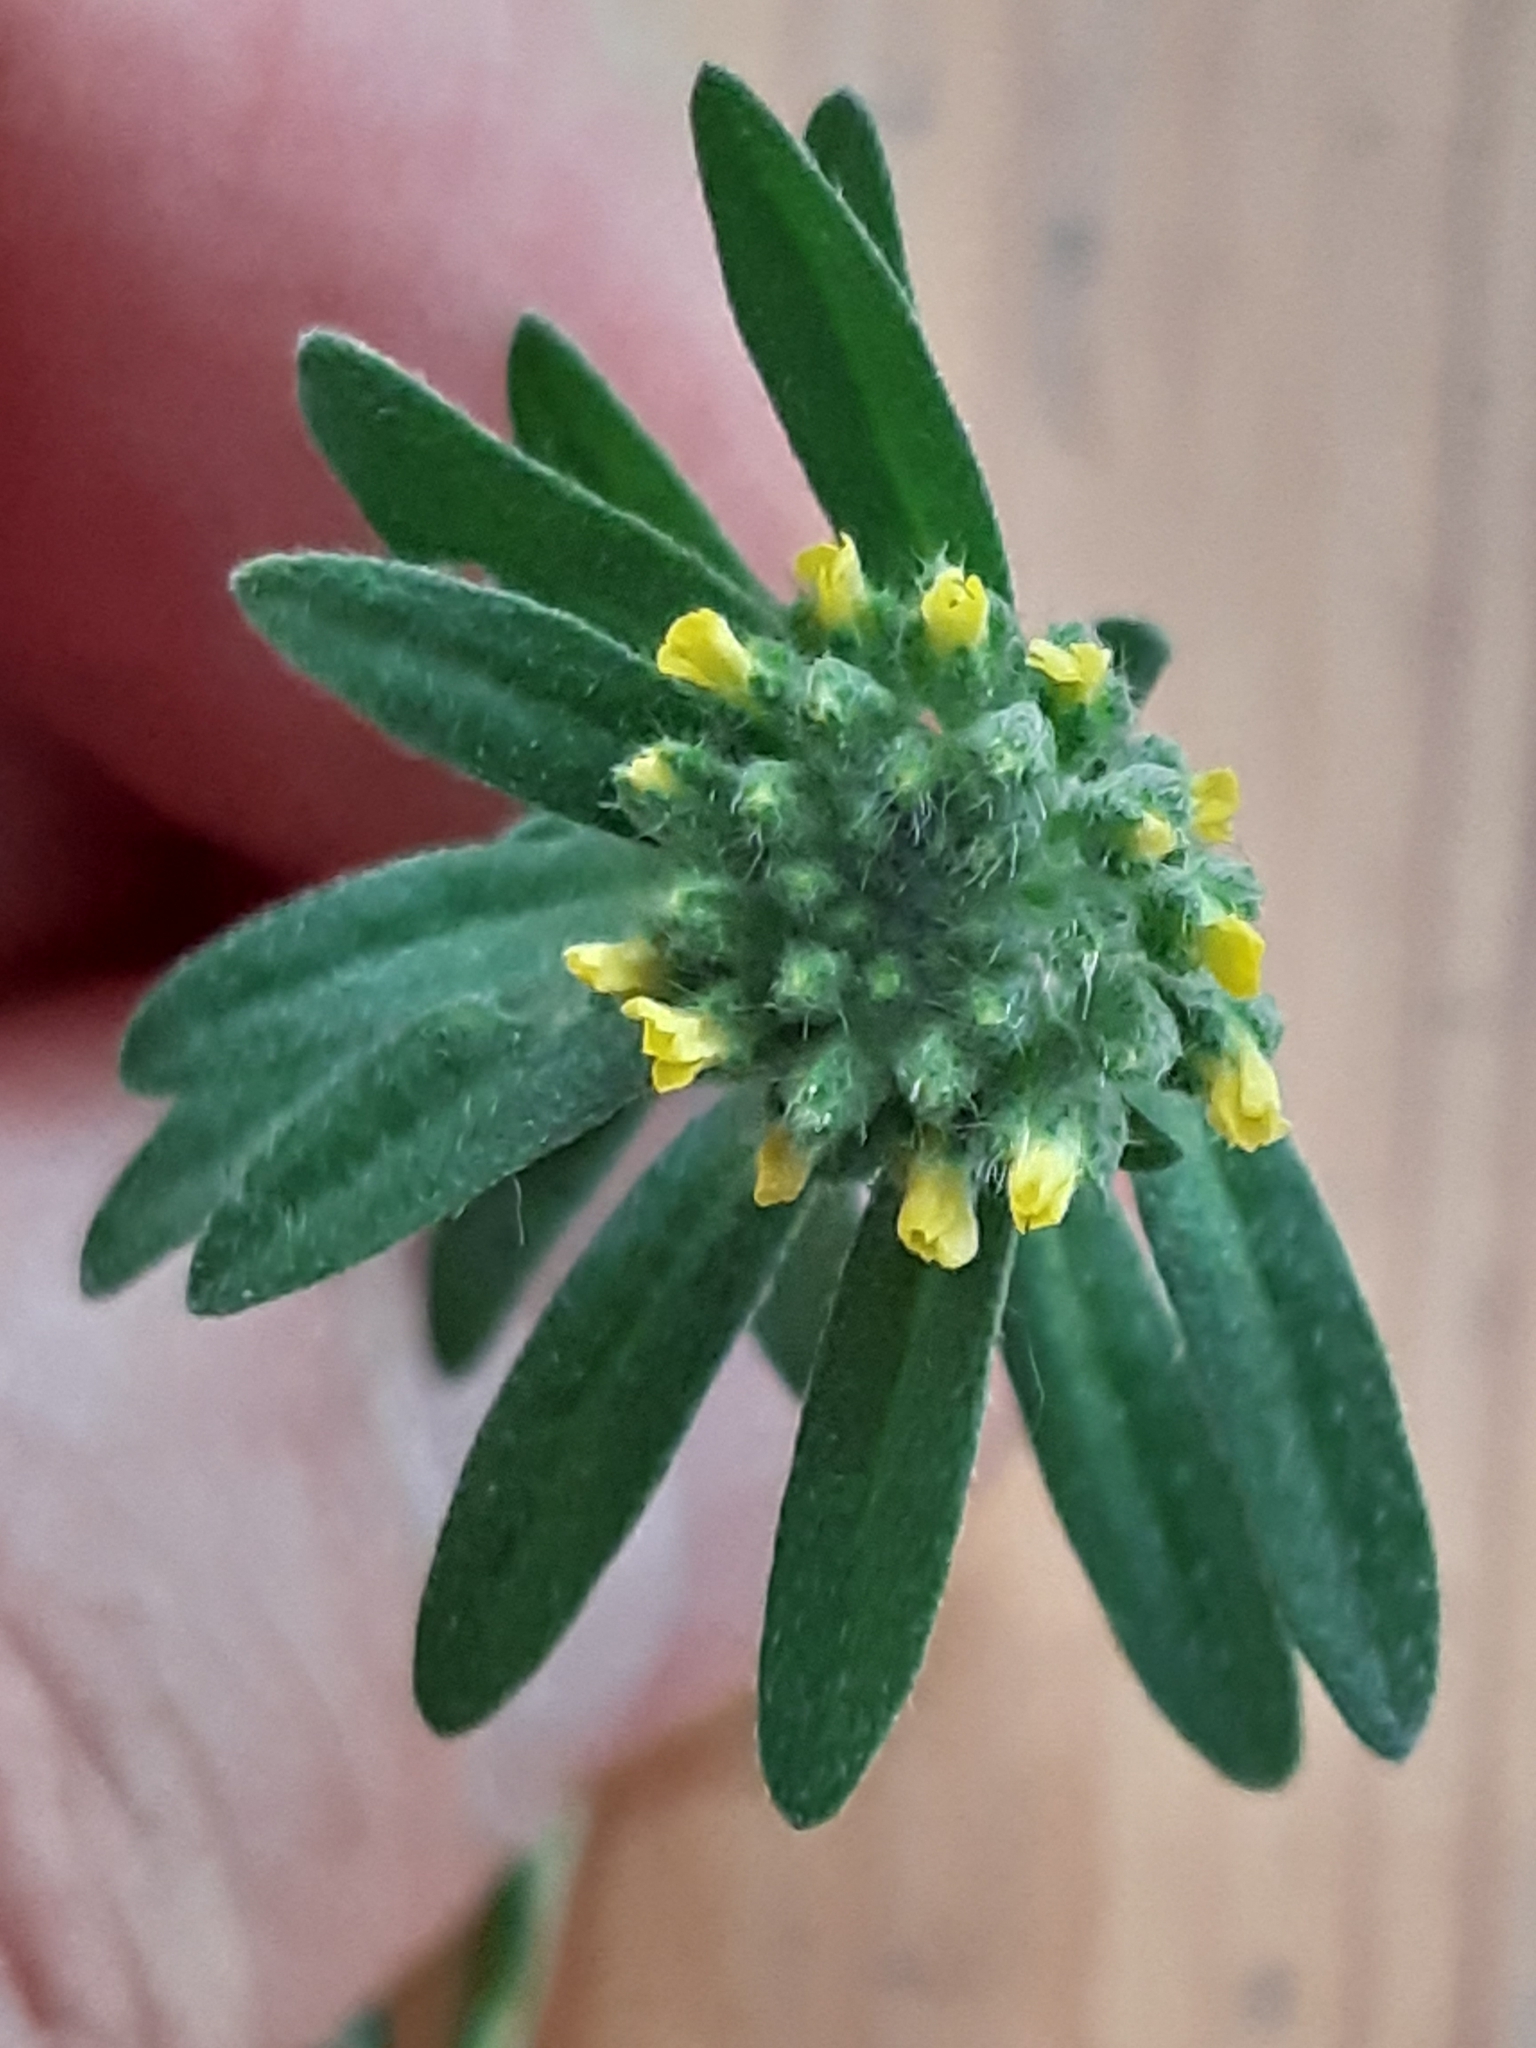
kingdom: Plantae
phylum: Tracheophyta
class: Magnoliopsida
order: Brassicales
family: Brassicaceae
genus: Alyssum
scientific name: Alyssum alyssoides
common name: Small alison
